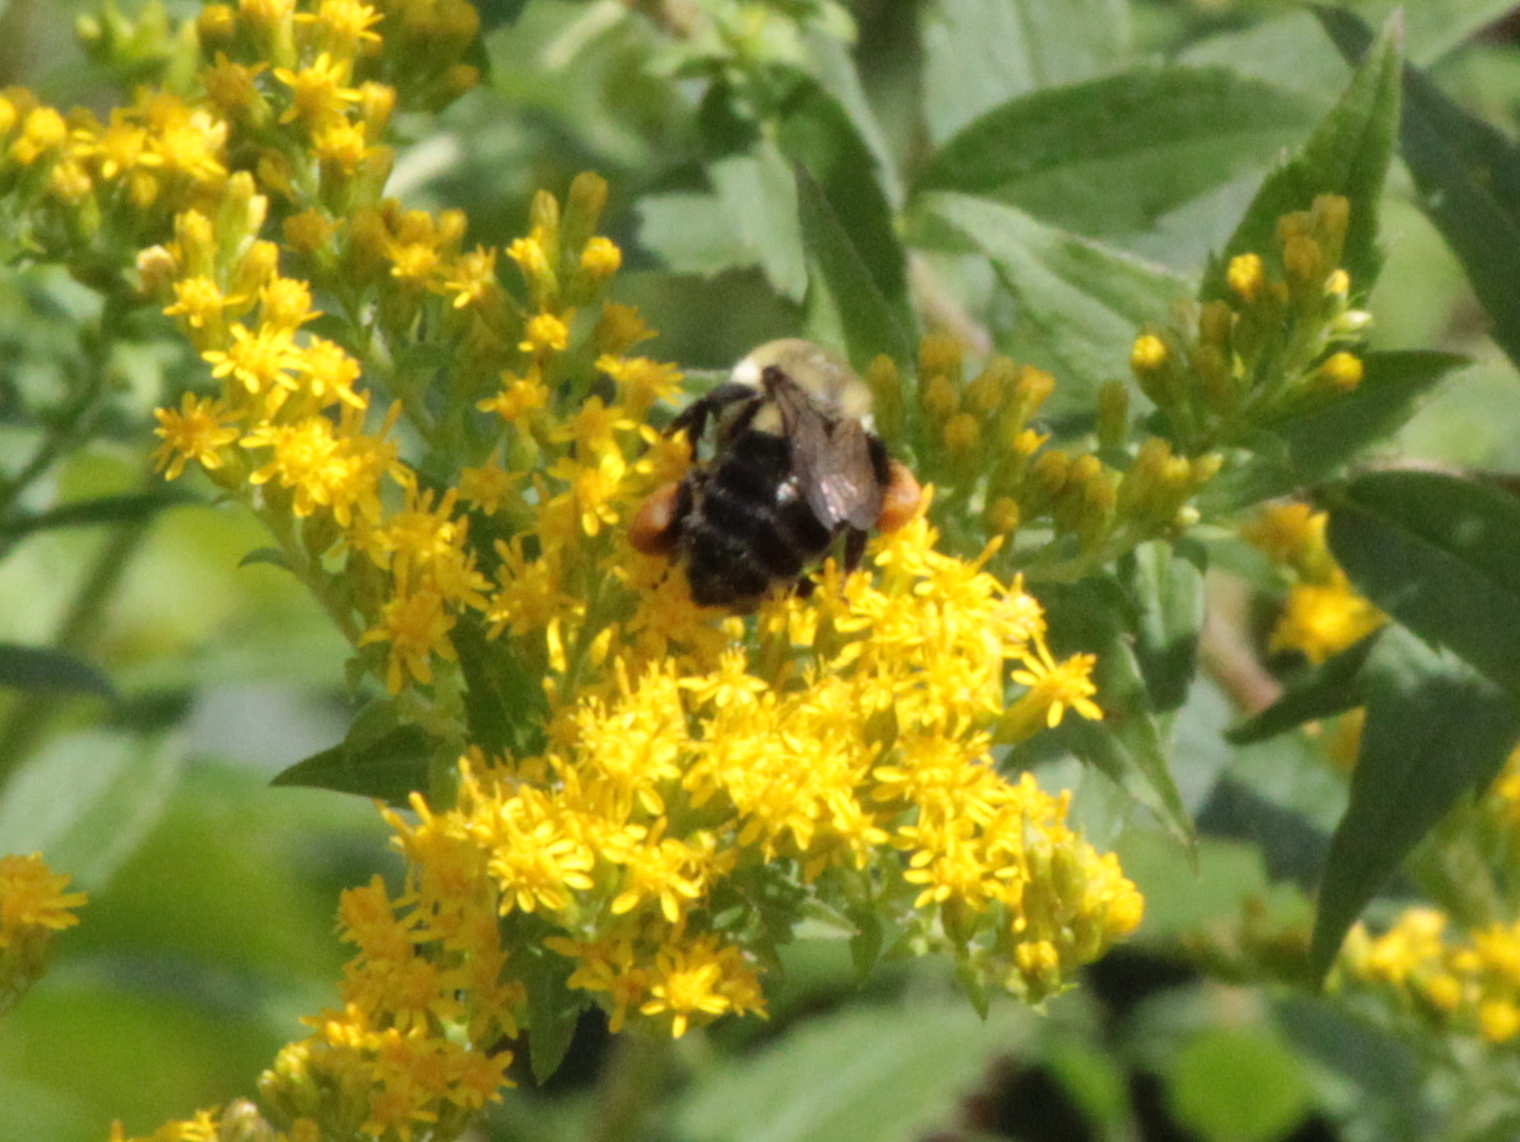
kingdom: Animalia
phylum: Arthropoda
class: Insecta
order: Hymenoptera
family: Apidae
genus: Bombus
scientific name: Bombus impatiens
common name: Common eastern bumble bee
